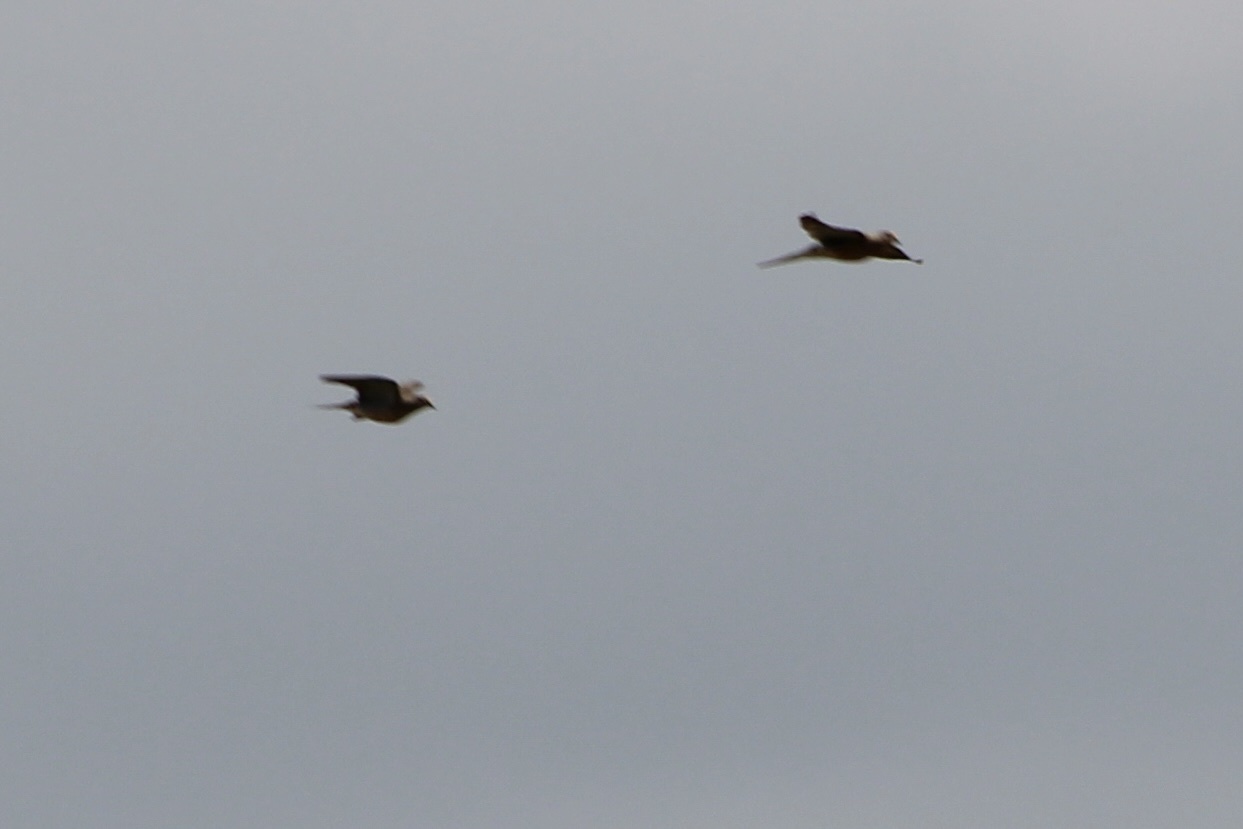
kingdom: Animalia
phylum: Chordata
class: Aves
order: Columbiformes
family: Columbidae
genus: Zenaida
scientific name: Zenaida macroura
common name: Mourning dove
